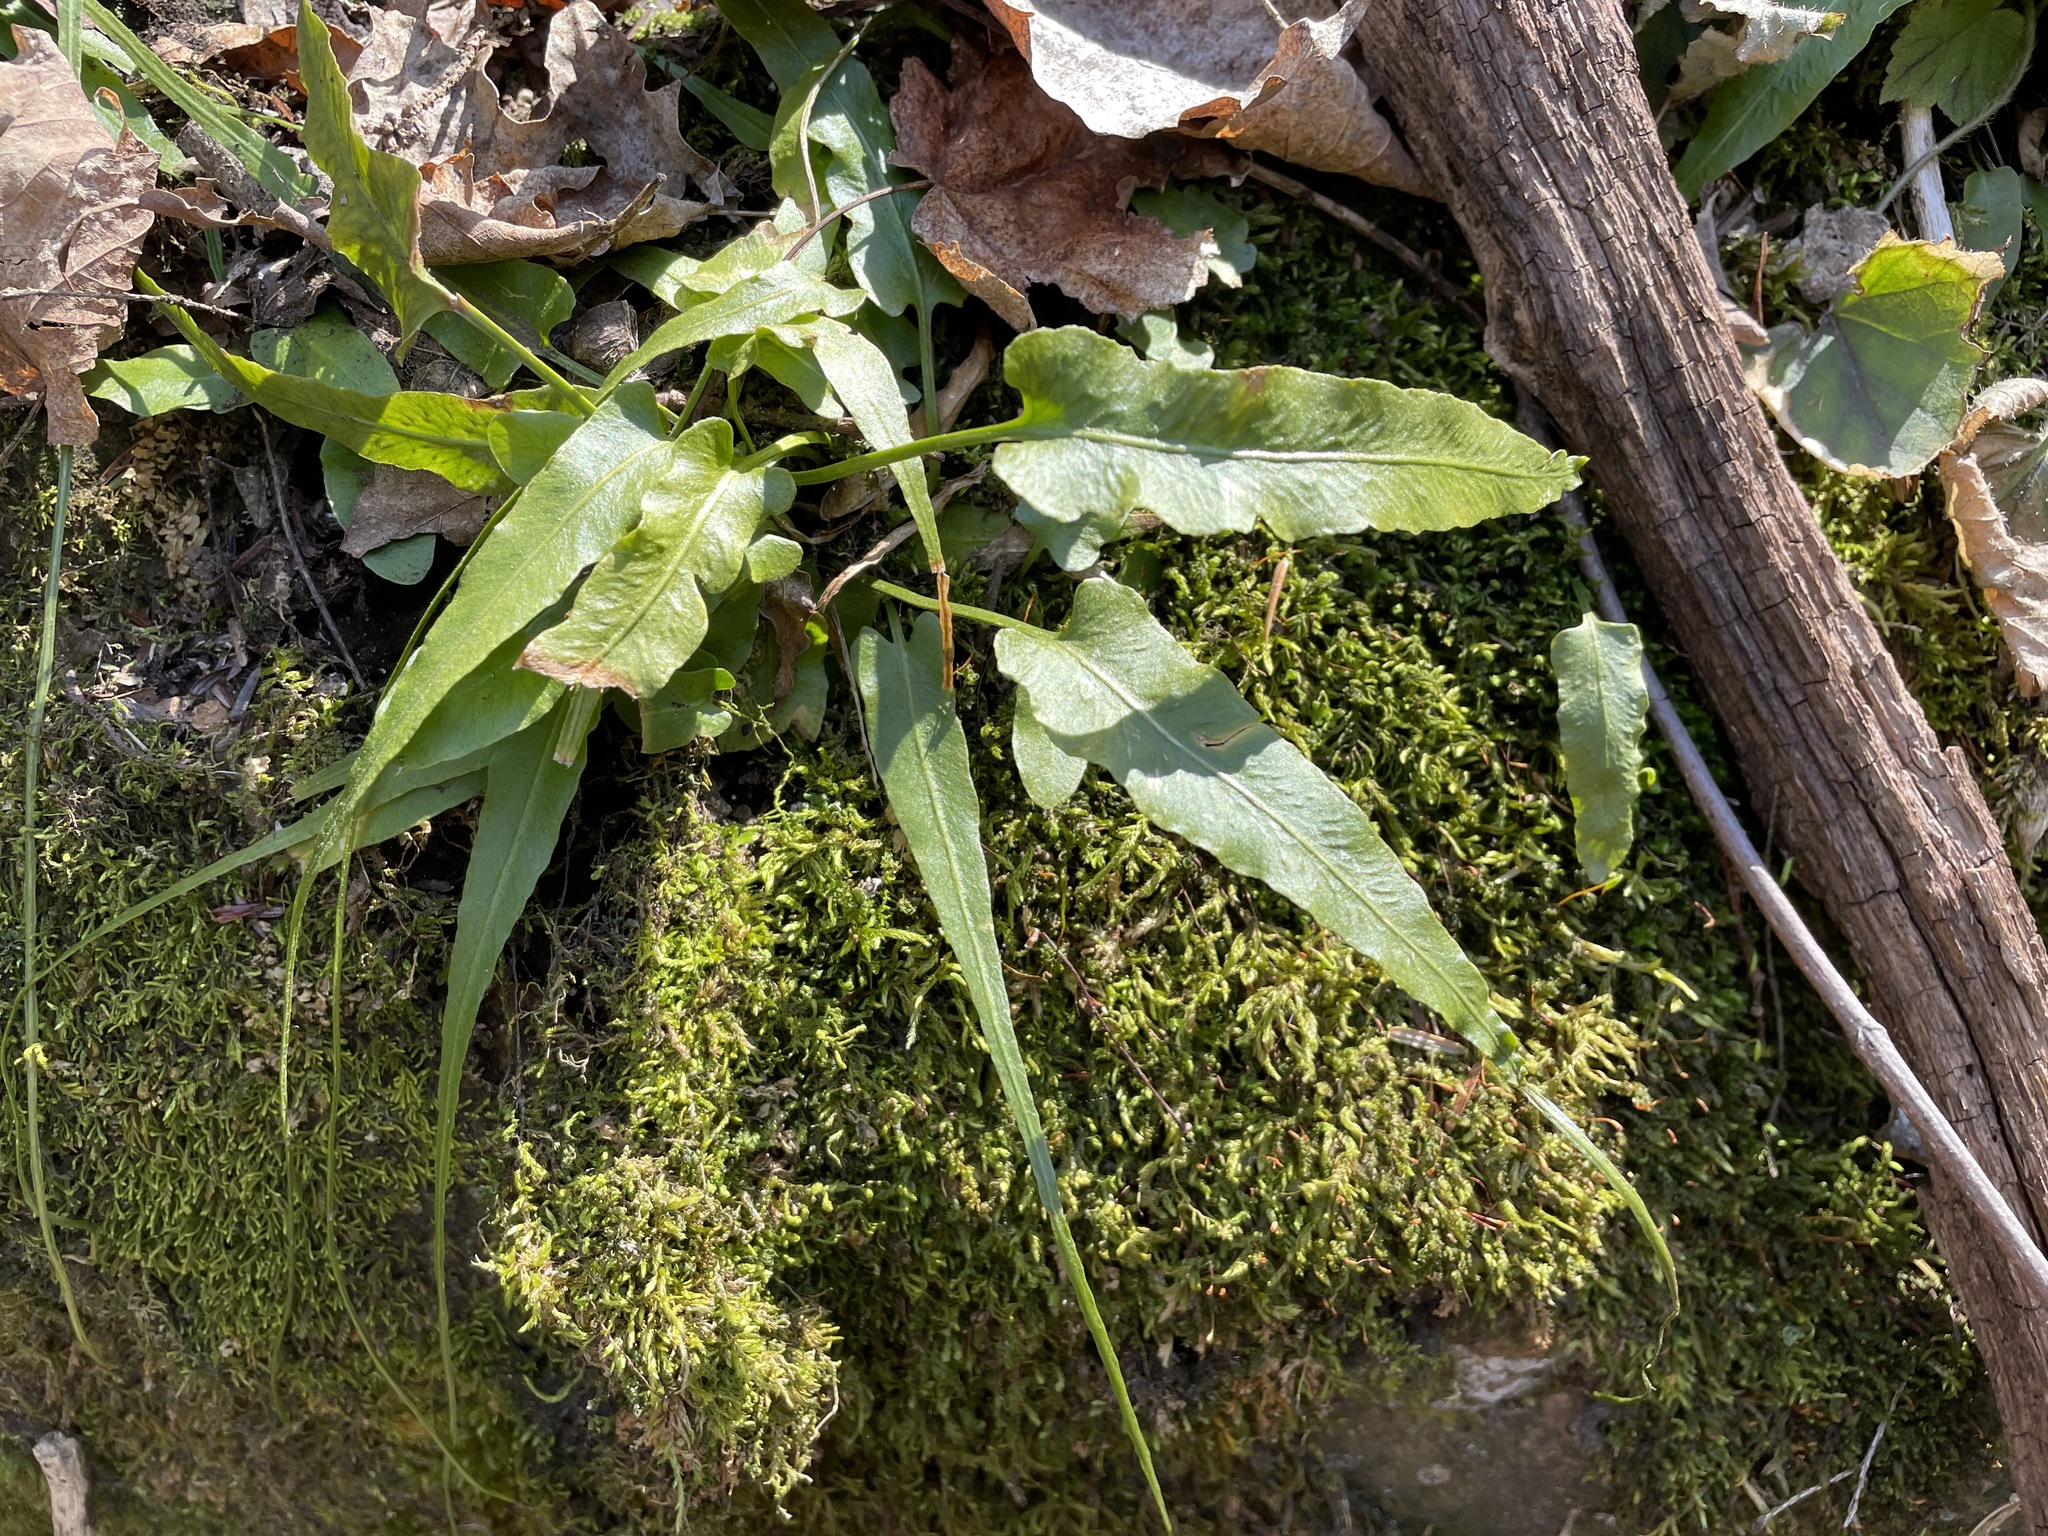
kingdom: Plantae
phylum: Tracheophyta
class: Polypodiopsida
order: Polypodiales
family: Aspleniaceae
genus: Asplenium
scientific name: Asplenium rhizophyllum
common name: Walking fern
